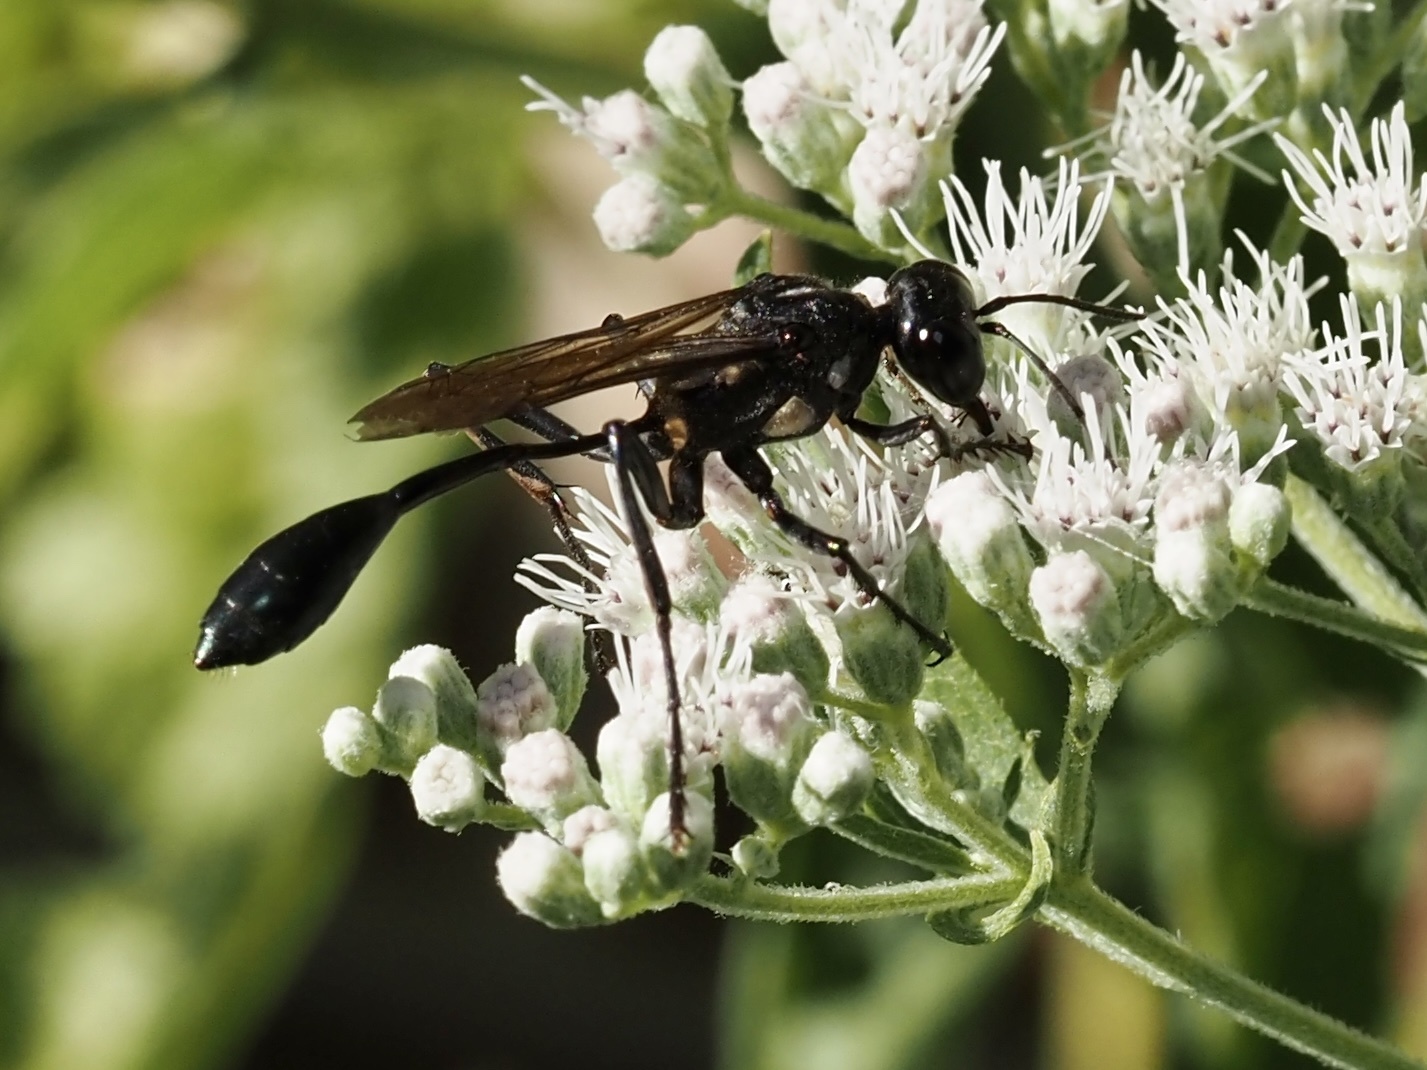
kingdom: Animalia
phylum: Arthropoda
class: Insecta
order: Hymenoptera
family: Sphecidae
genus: Eremnophila
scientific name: Eremnophila aureonotata
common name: Gold-marked thread-waisted wasp
